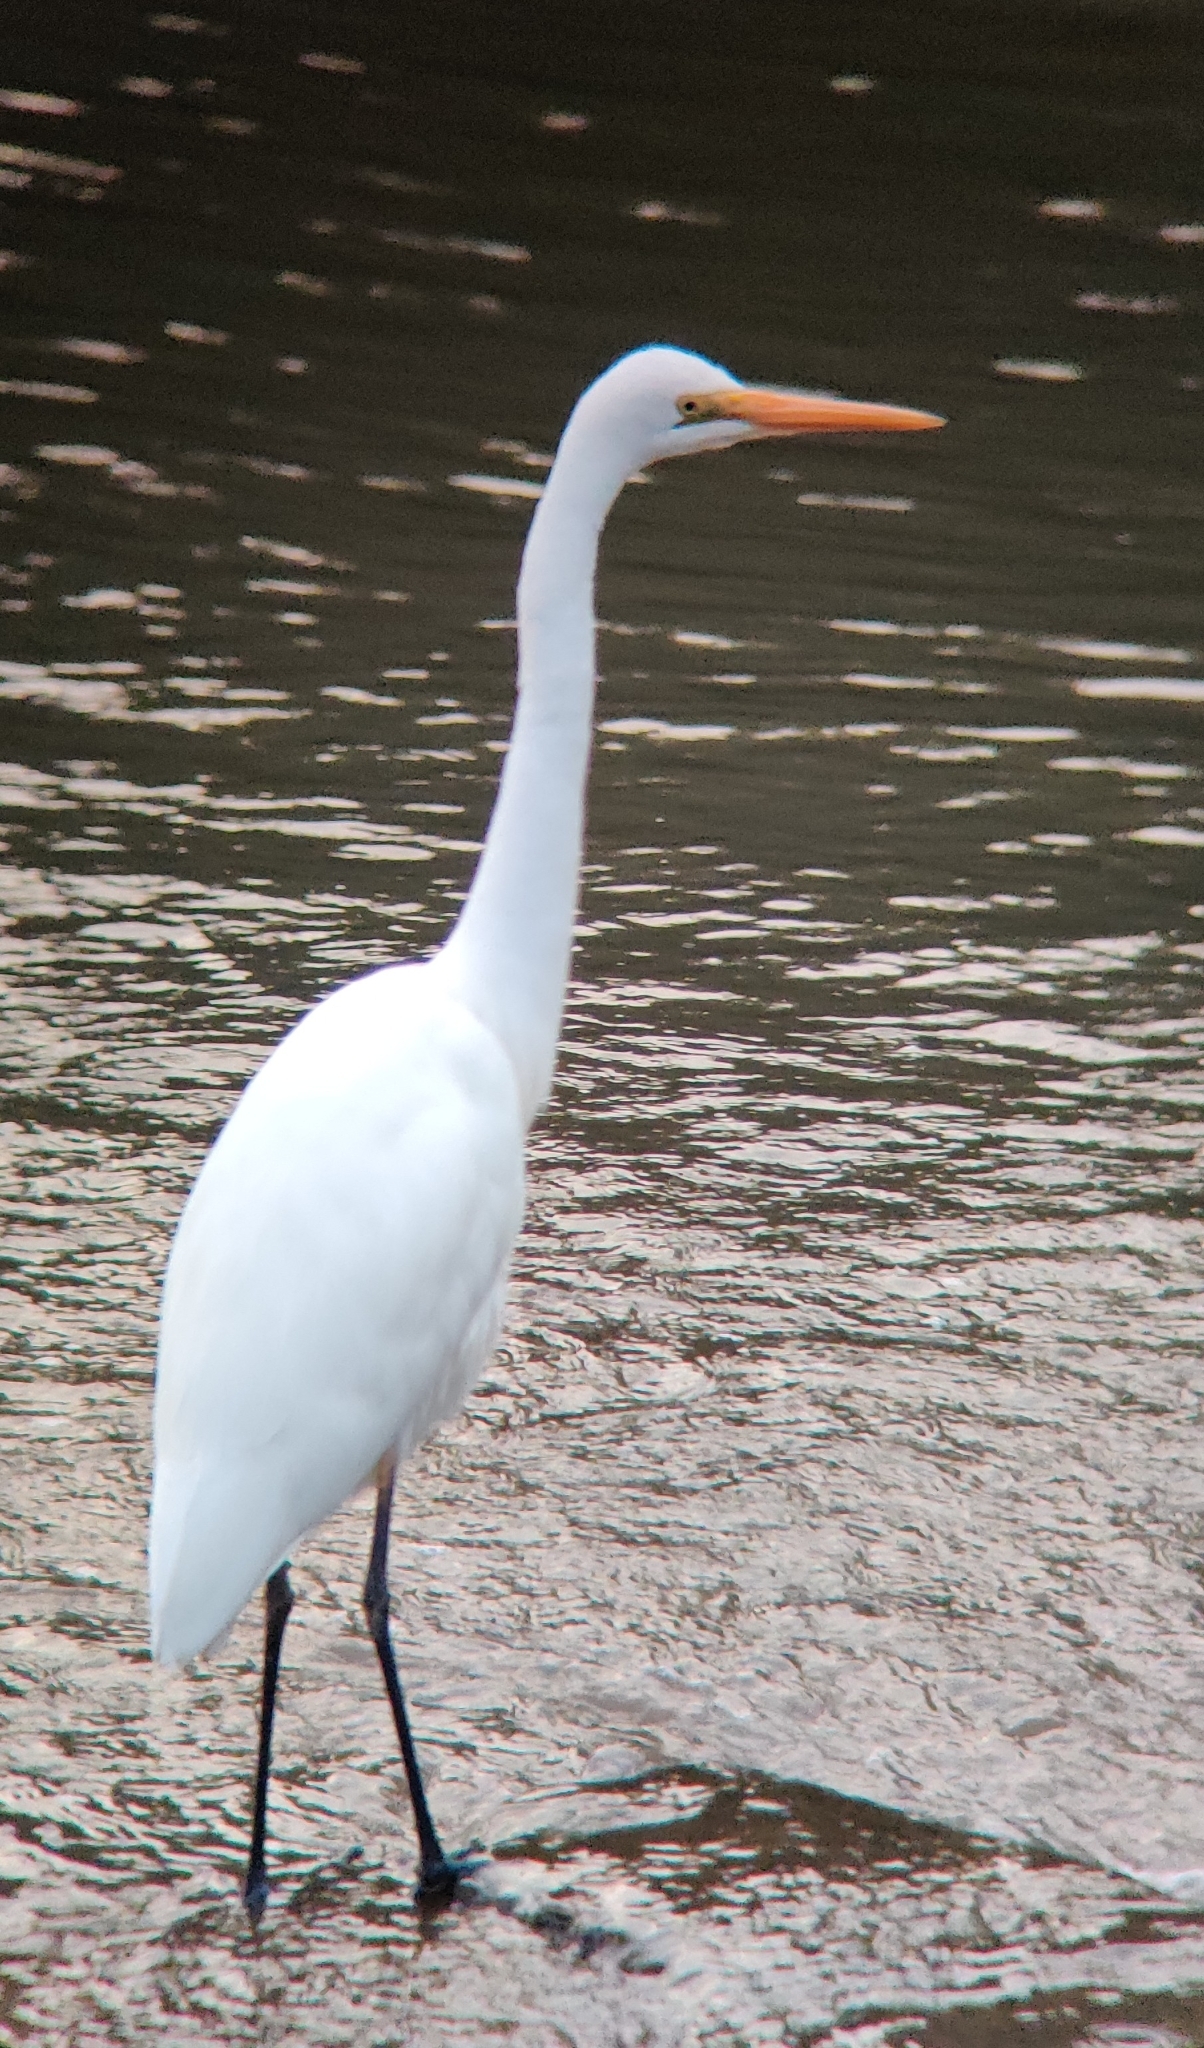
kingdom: Animalia
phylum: Chordata
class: Aves
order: Pelecaniformes
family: Ardeidae
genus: Ardea
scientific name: Ardea alba
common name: Great egret
